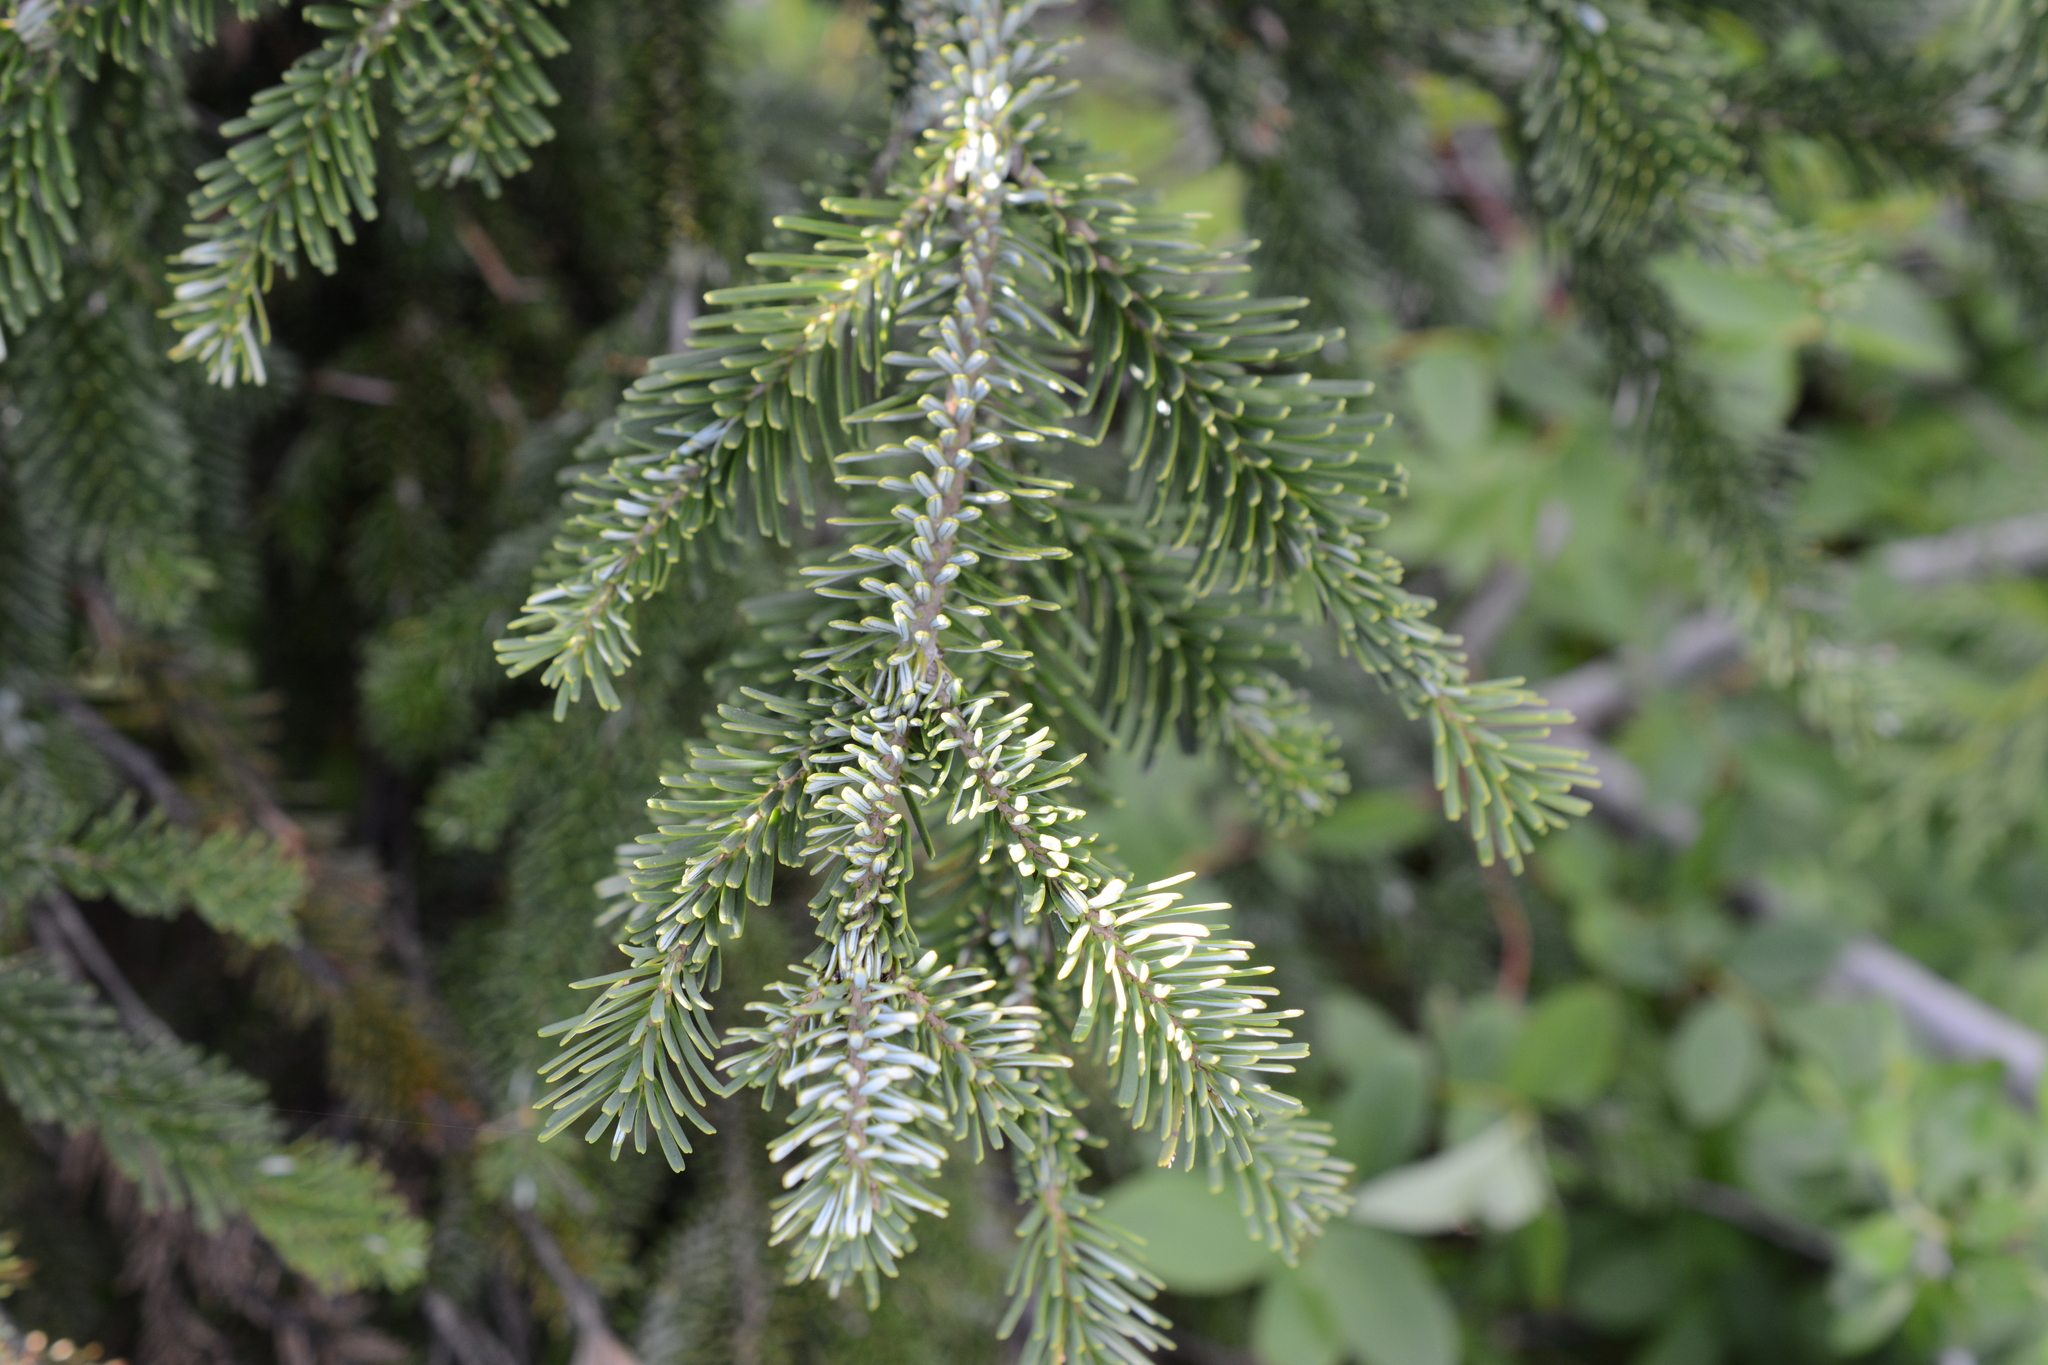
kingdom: Plantae
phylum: Tracheophyta
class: Pinopsida
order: Pinales
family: Pinaceae
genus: Abies
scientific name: Abies lasiocarpa
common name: Subalpine fir
